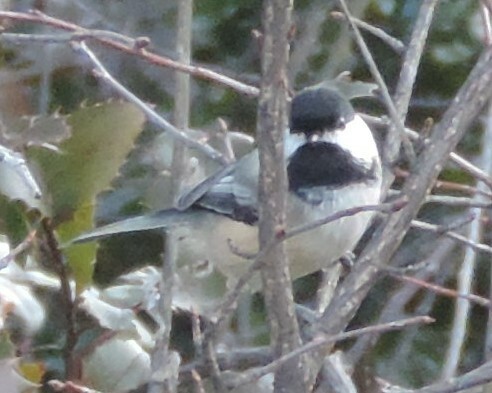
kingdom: Animalia
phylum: Chordata
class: Aves
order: Passeriformes
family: Paridae
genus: Poecile
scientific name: Poecile atricapillus
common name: Black-capped chickadee
